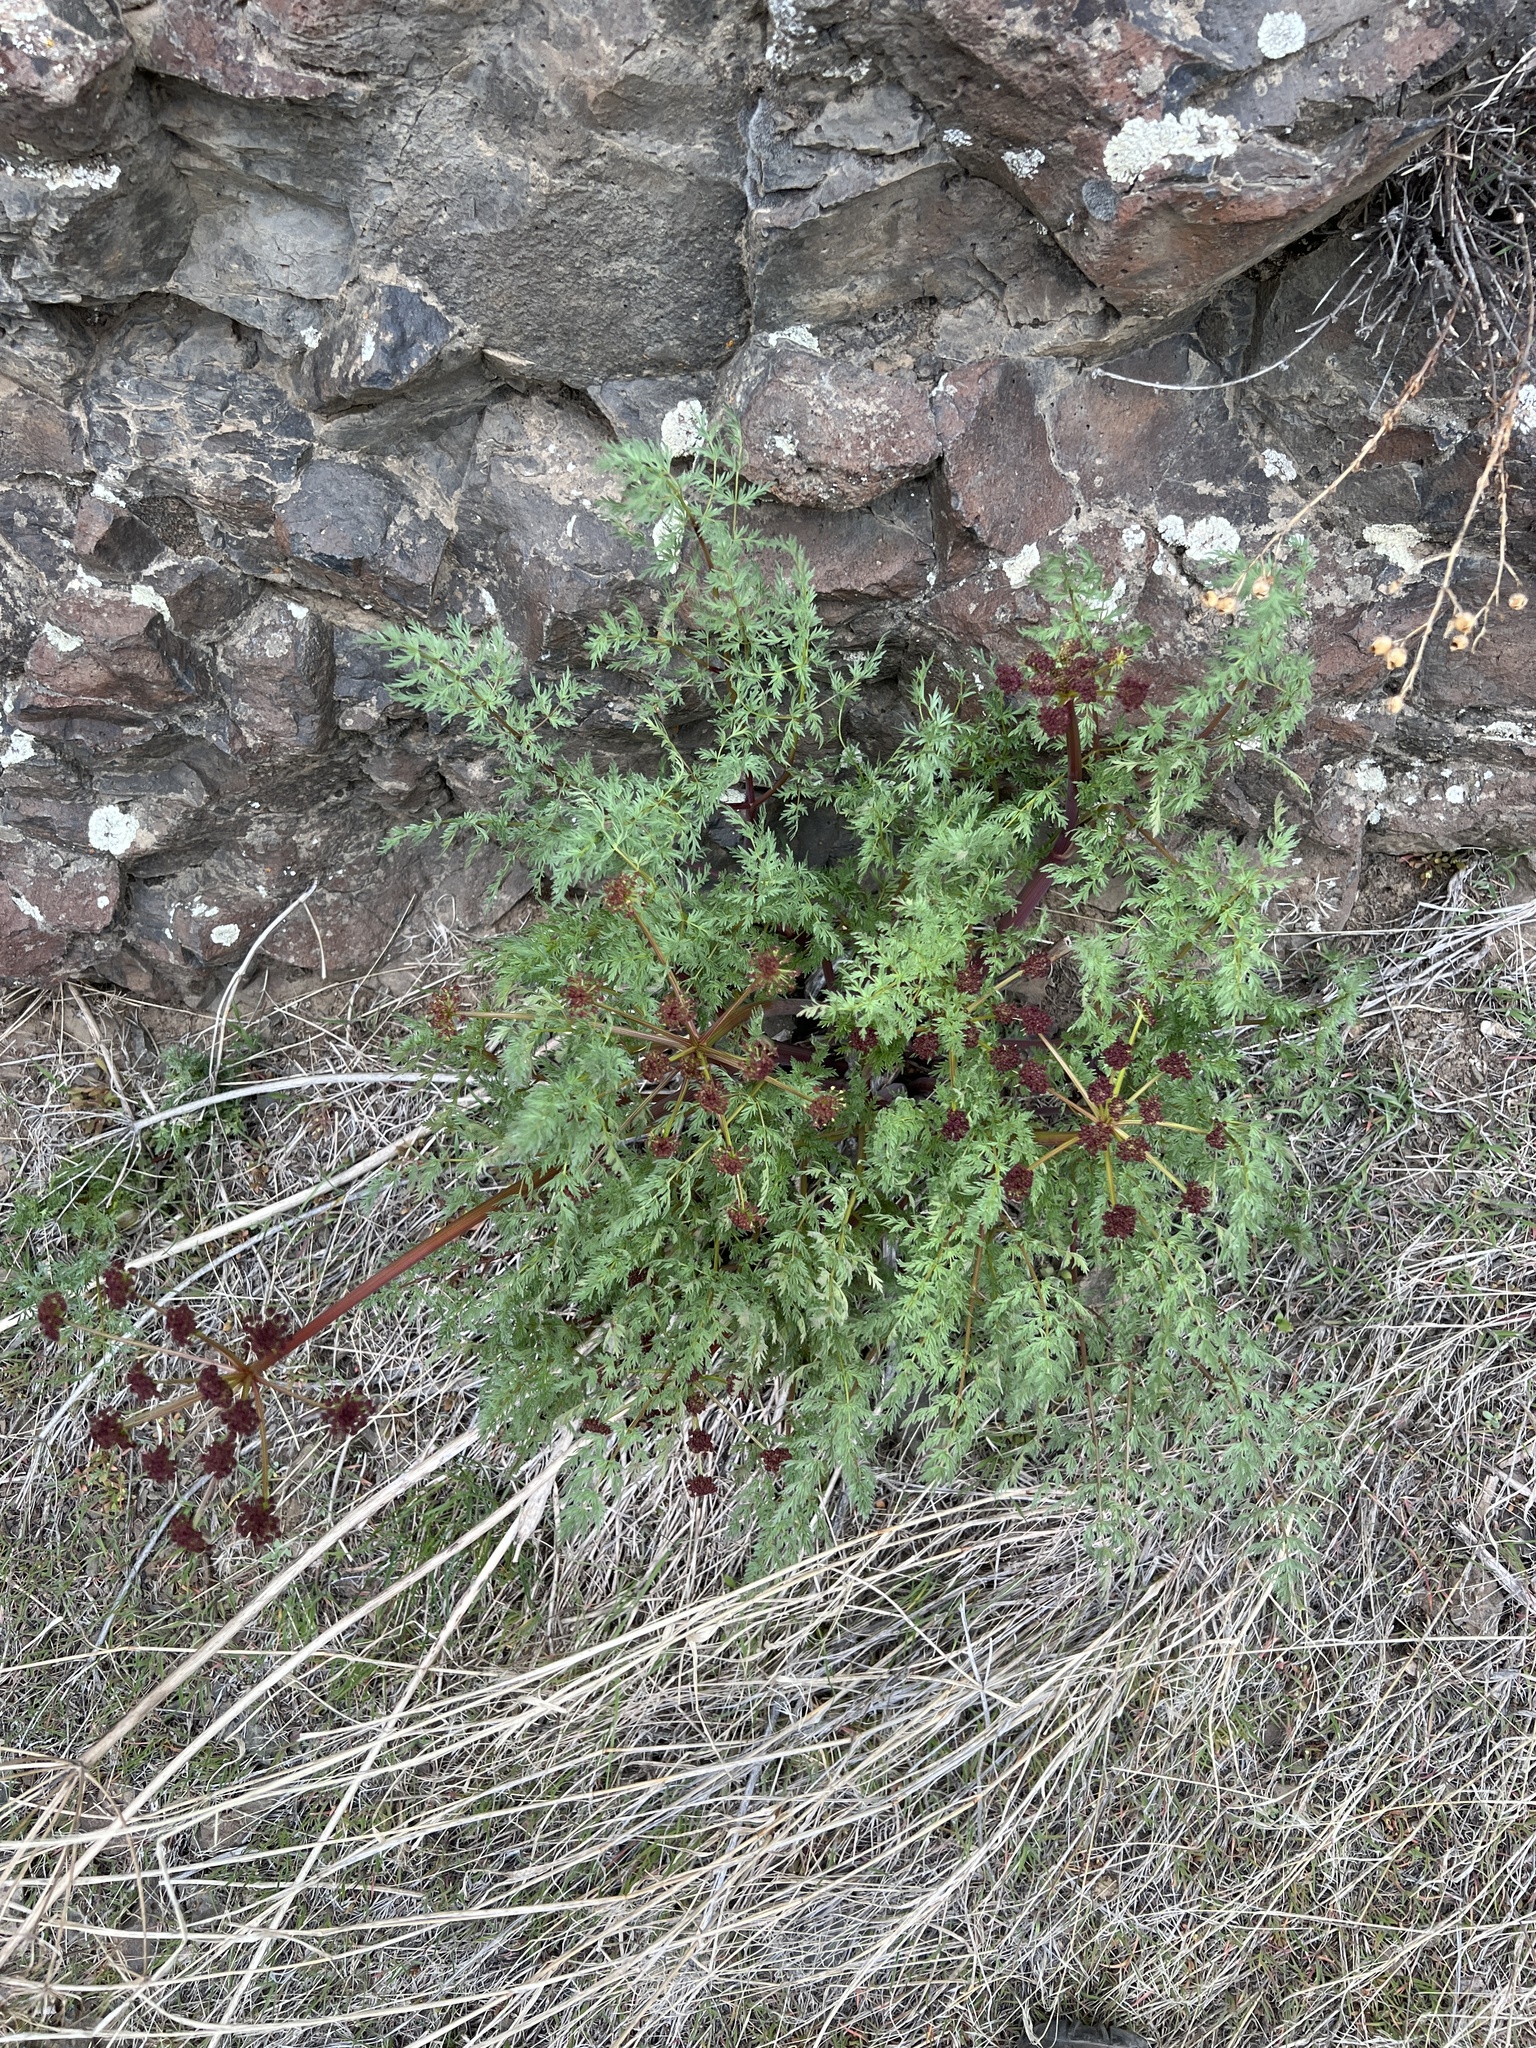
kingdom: Plantae
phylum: Tracheophyta
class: Magnoliopsida
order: Apiales
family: Apiaceae
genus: Lomatium
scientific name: Lomatium dissectum
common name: Lomatium
